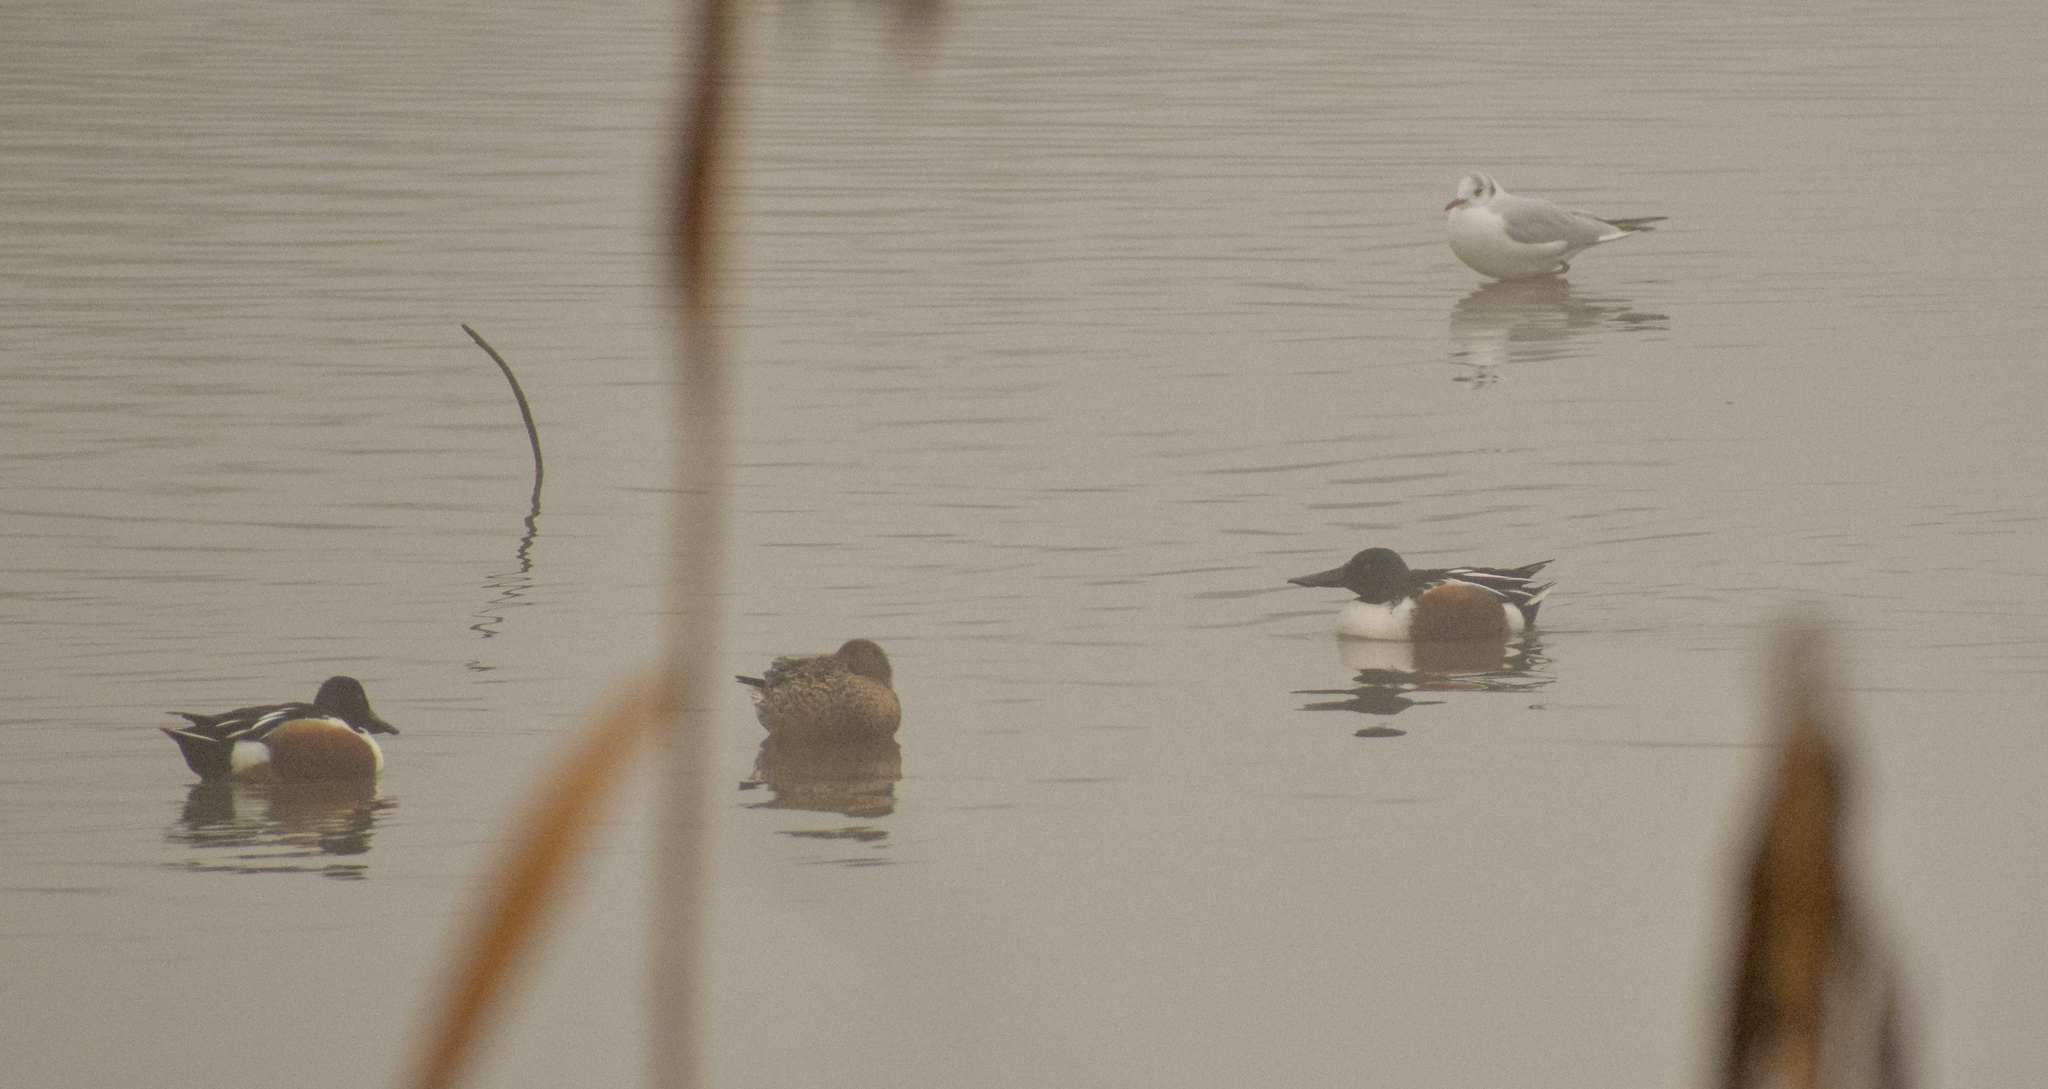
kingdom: Animalia
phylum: Chordata
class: Aves
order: Anseriformes
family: Anatidae
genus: Spatula
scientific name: Spatula clypeata
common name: Northern shoveler
